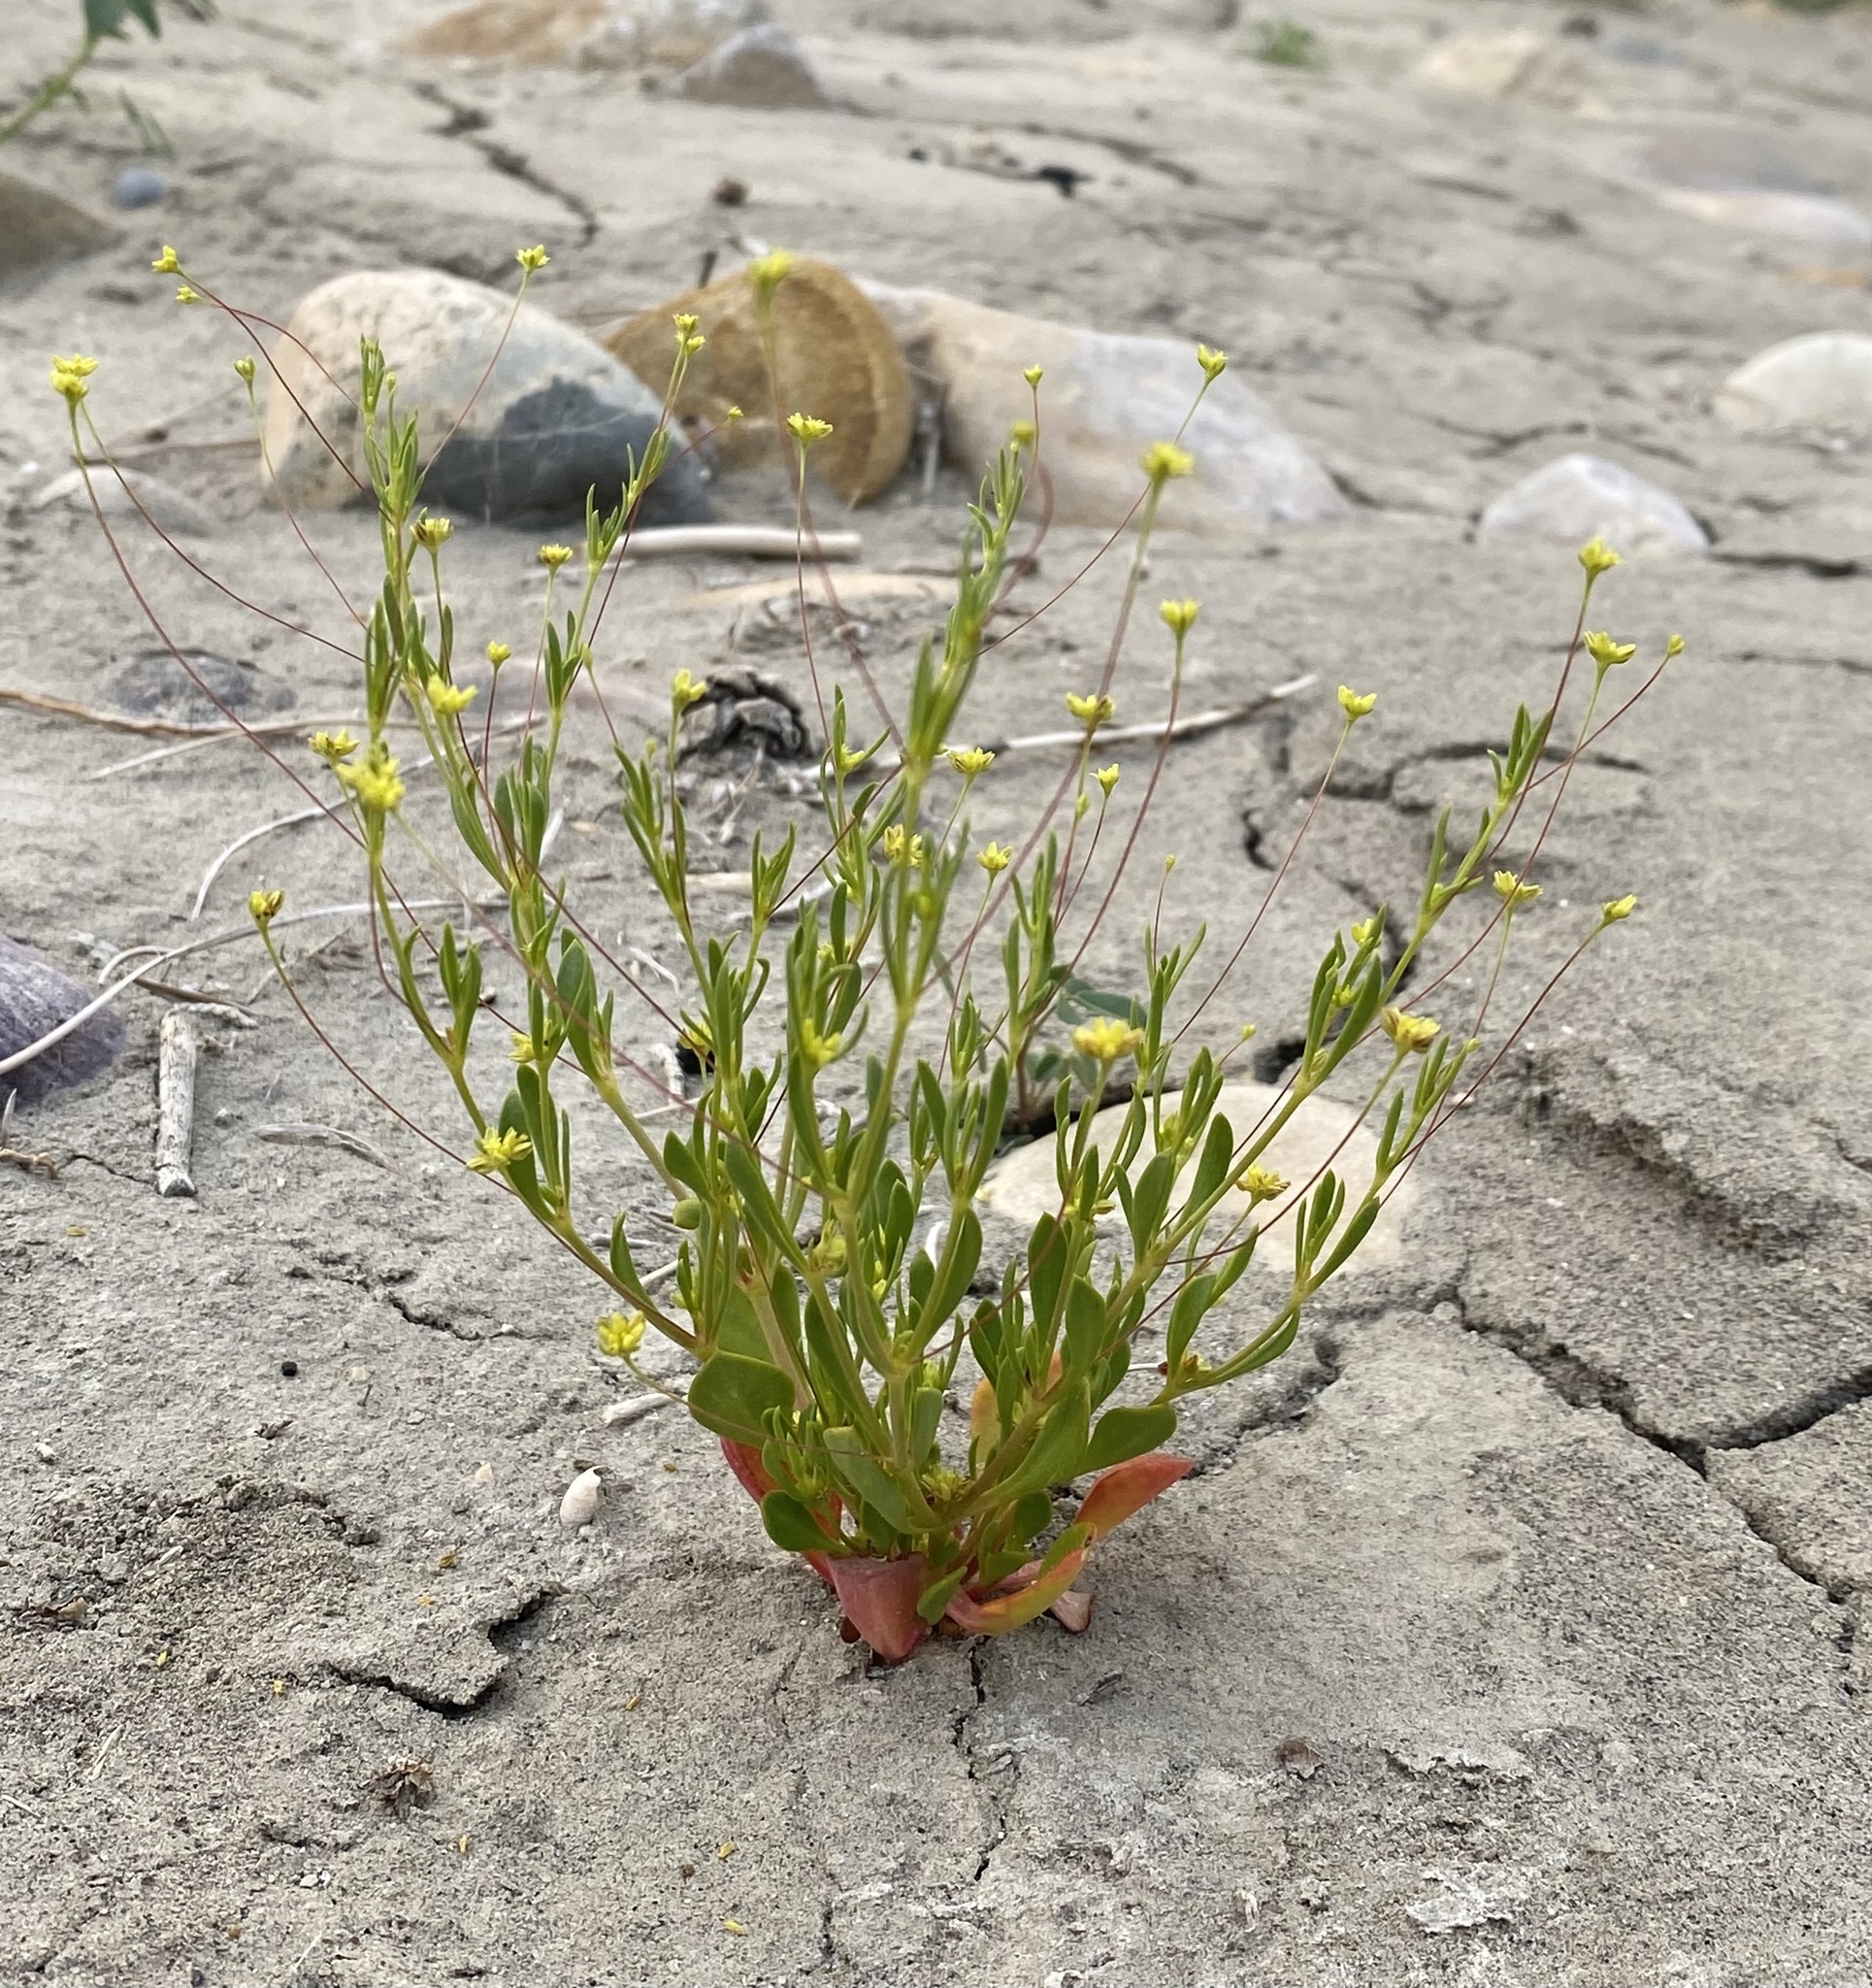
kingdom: Plantae
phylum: Tracheophyta
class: Magnoliopsida
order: Caryophyllales
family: Polygonaceae
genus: Stenogonum
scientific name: Stenogonum salsuginosum
